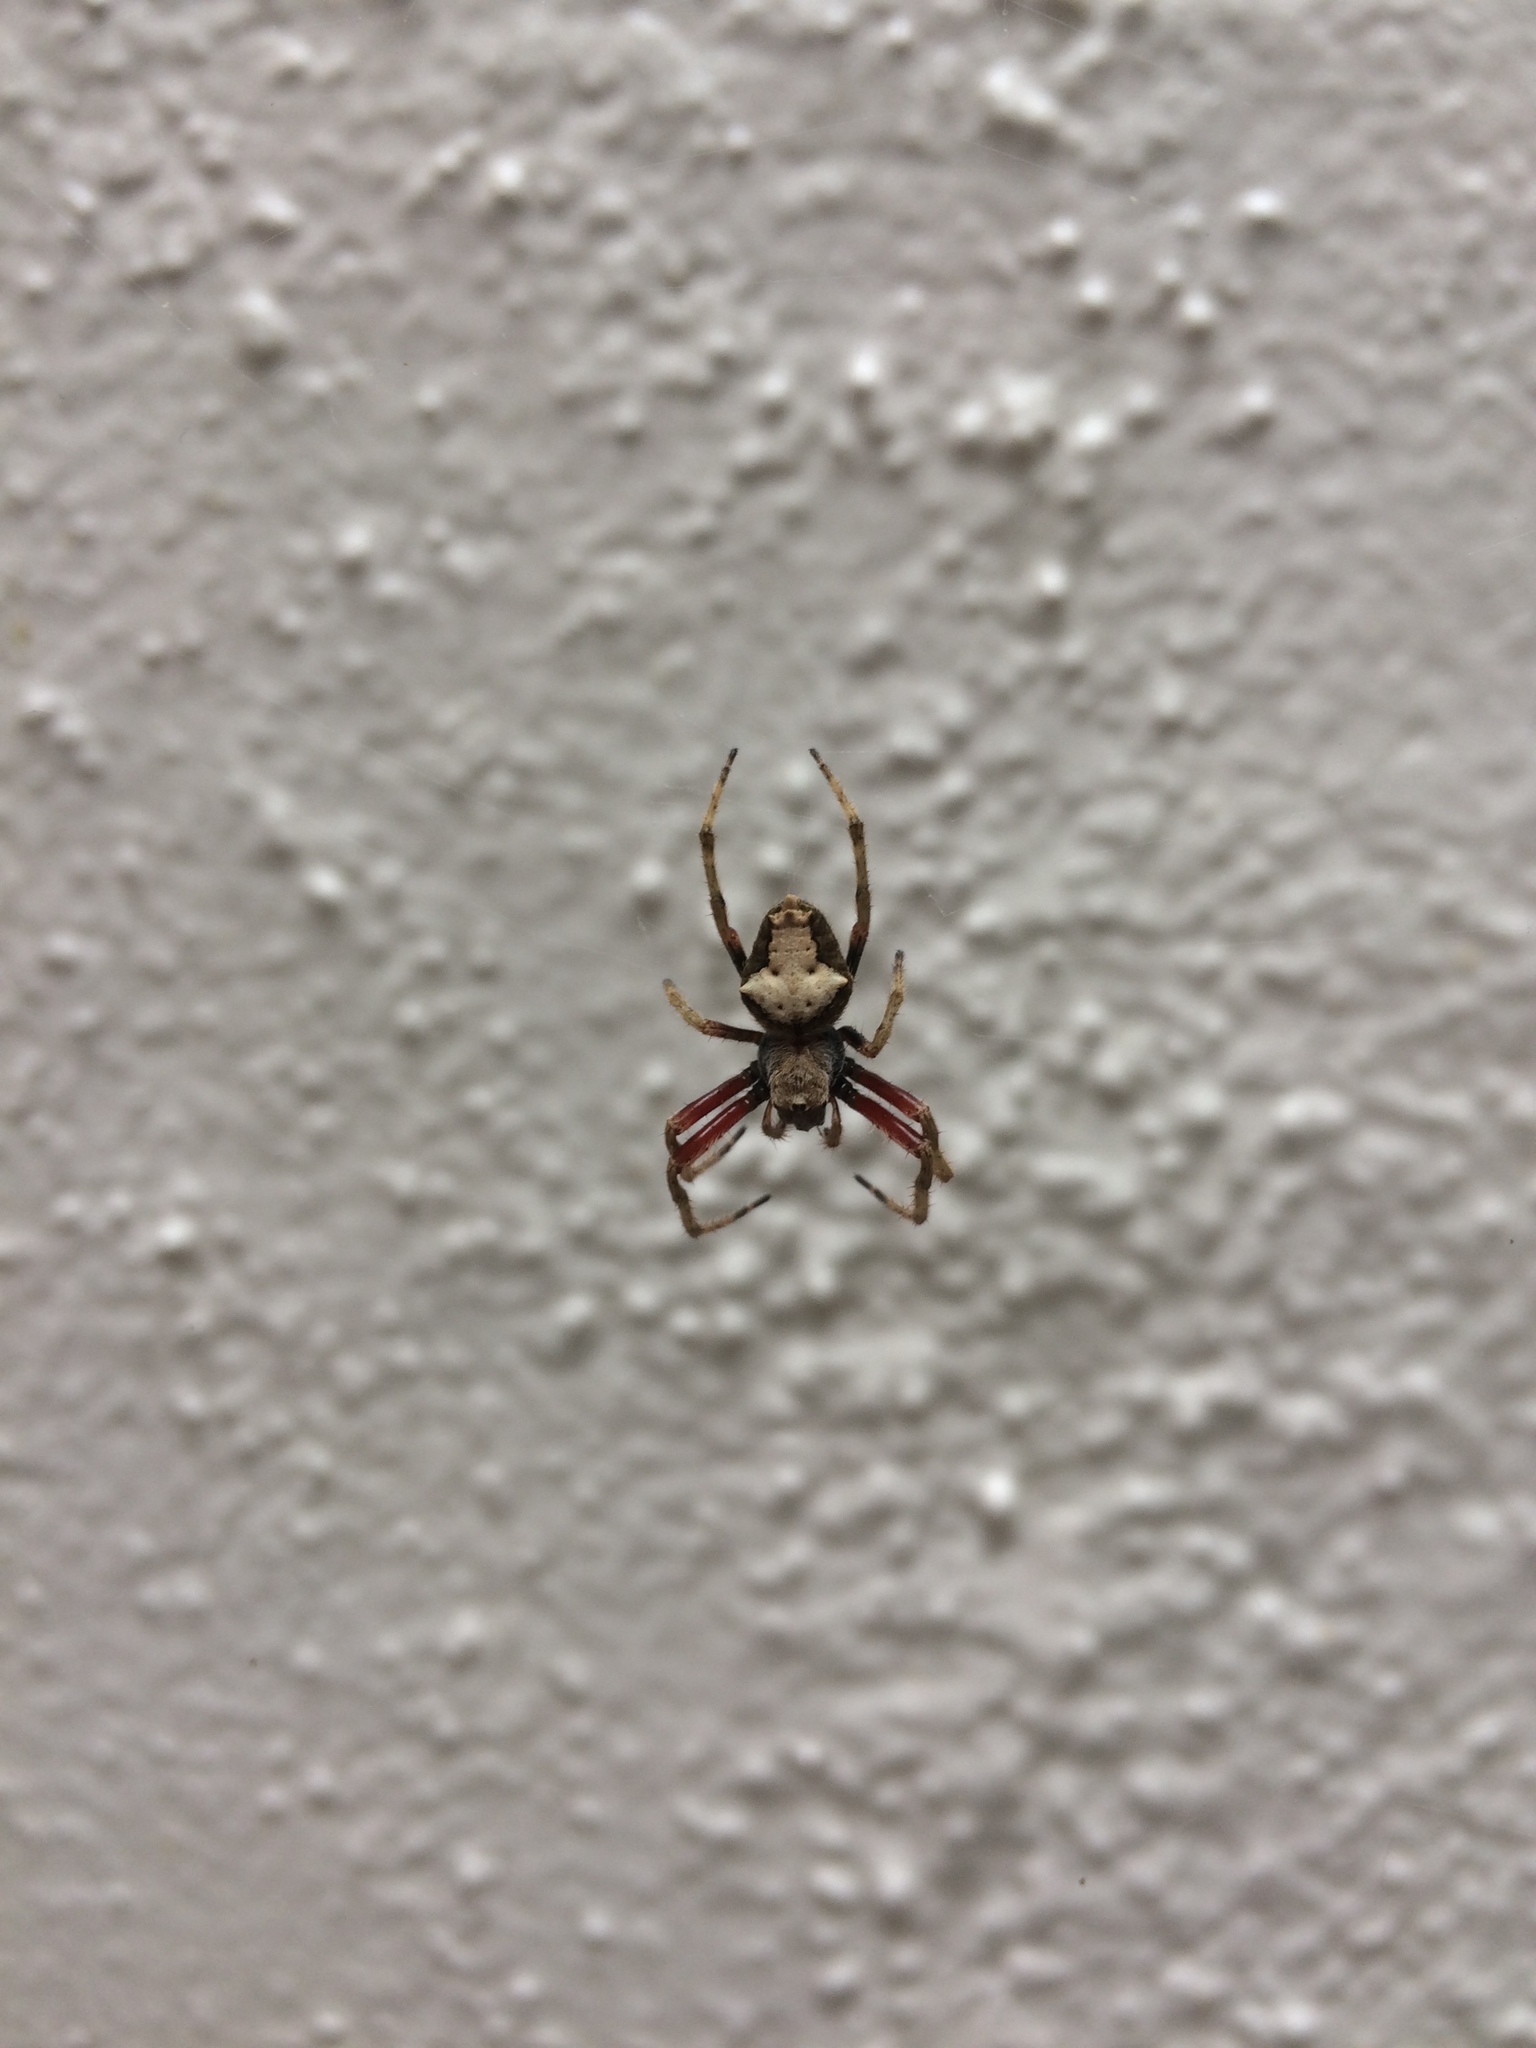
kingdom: Animalia
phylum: Arthropoda
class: Arachnida
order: Araneae
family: Araneidae
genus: Eriophora
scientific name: Eriophora pustulosa
